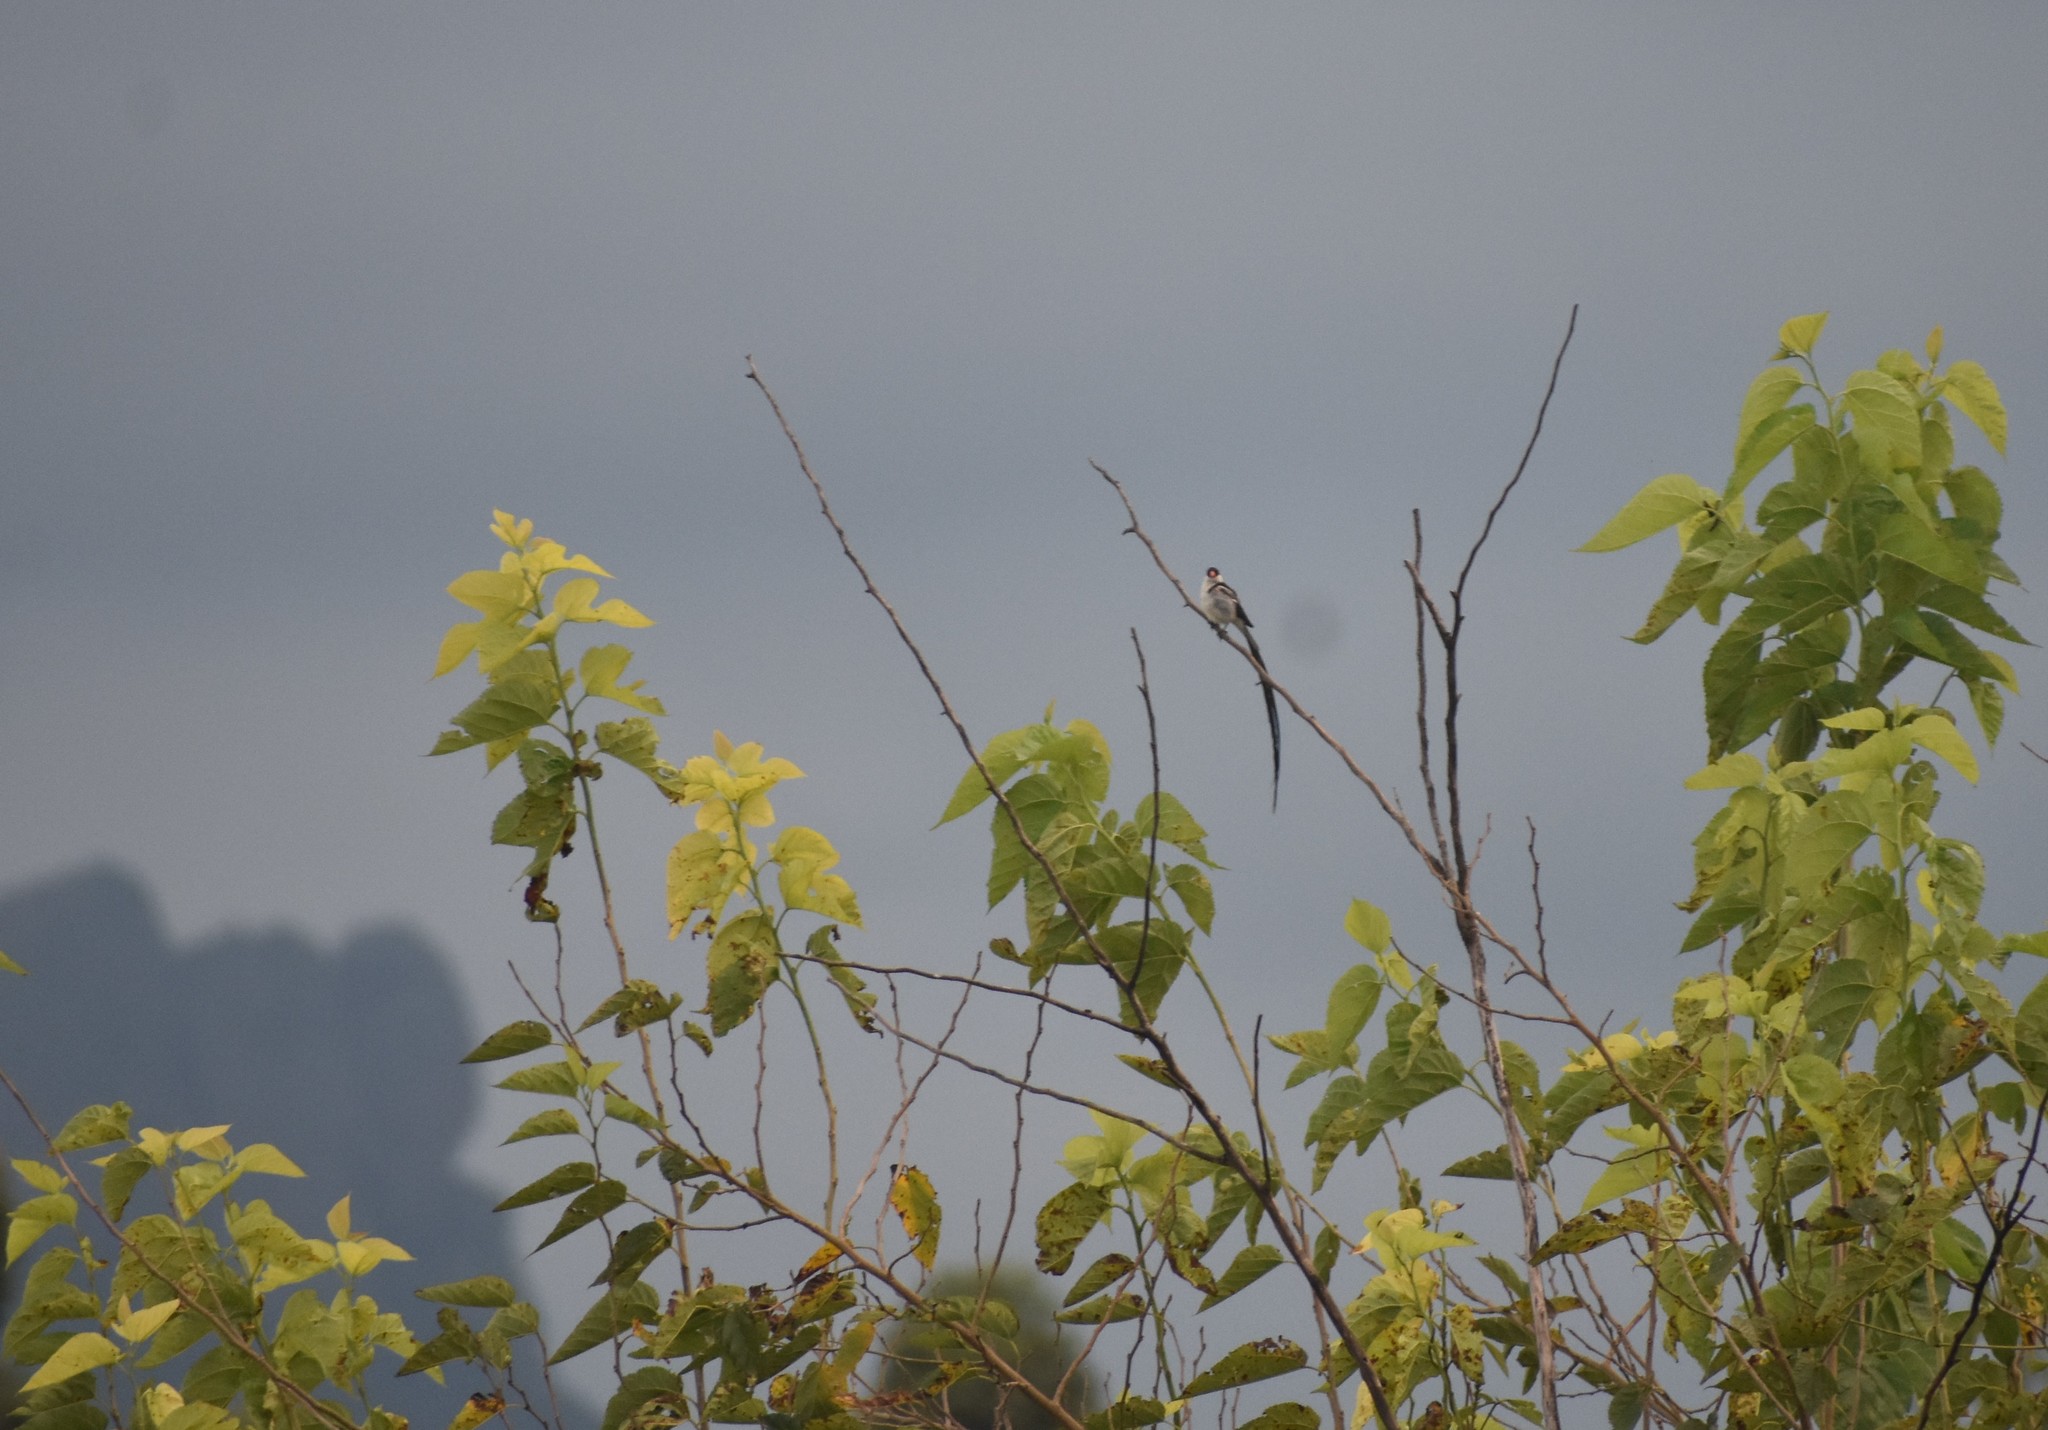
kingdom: Animalia
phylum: Chordata
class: Aves
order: Passeriformes
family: Viduidae
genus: Vidua
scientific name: Vidua macroura
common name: Pin-tailed whydah
